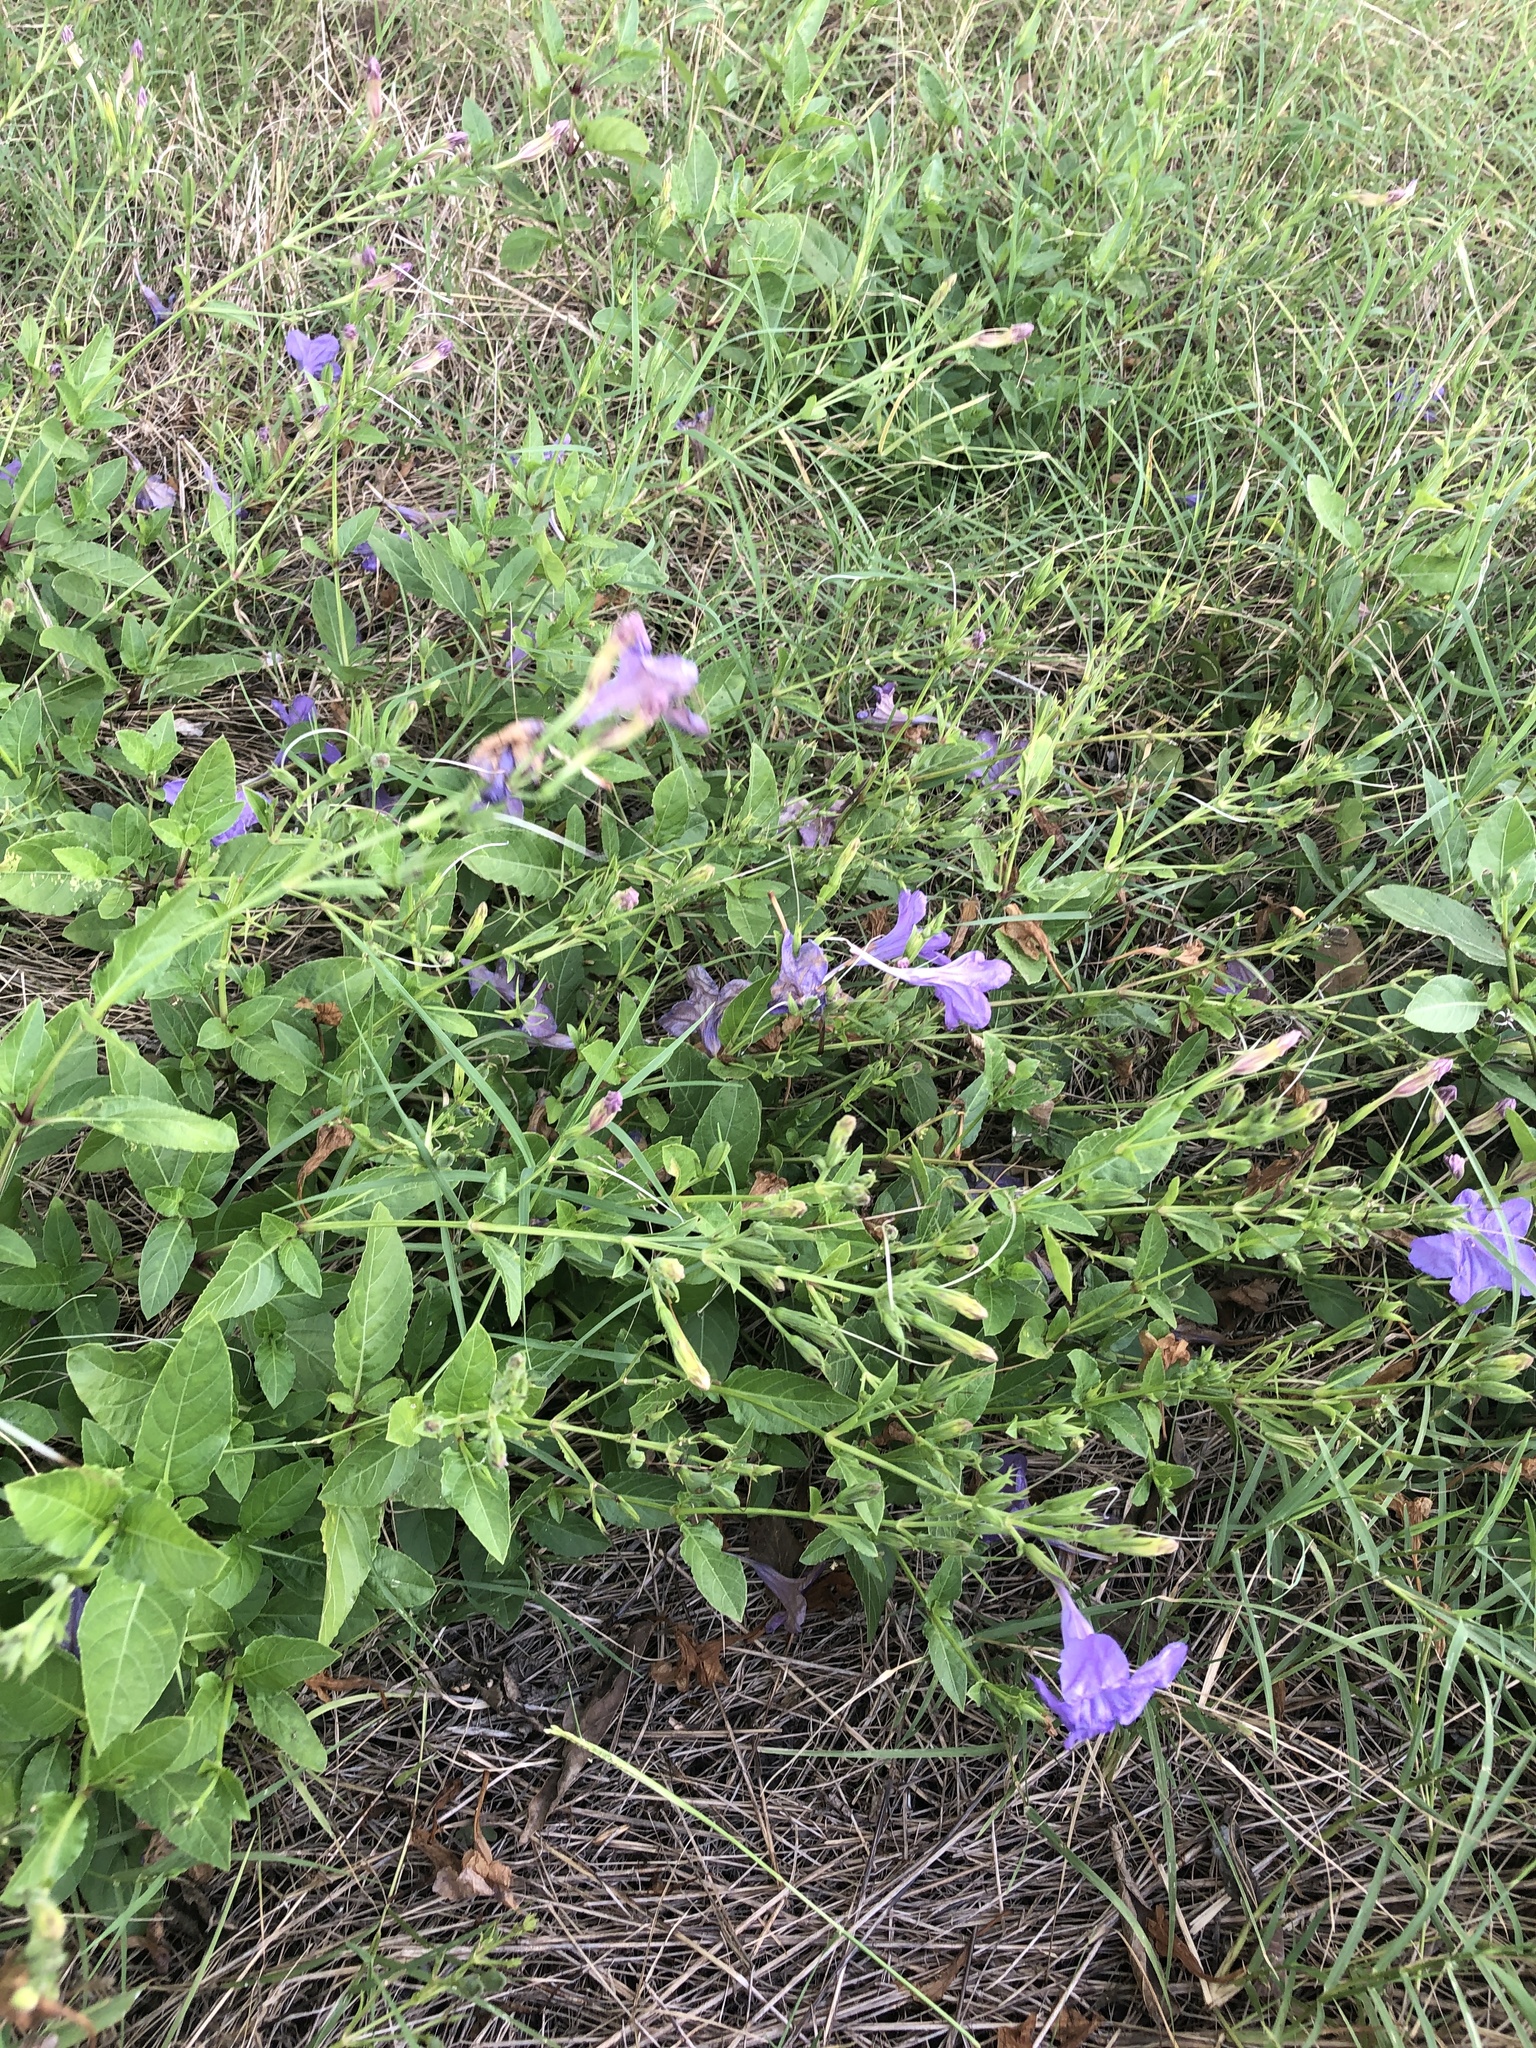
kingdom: Plantae
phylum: Tracheophyta
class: Magnoliopsida
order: Lamiales
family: Acanthaceae
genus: Ruellia
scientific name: Ruellia ciliatiflora
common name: Hairyflower wild petunia
